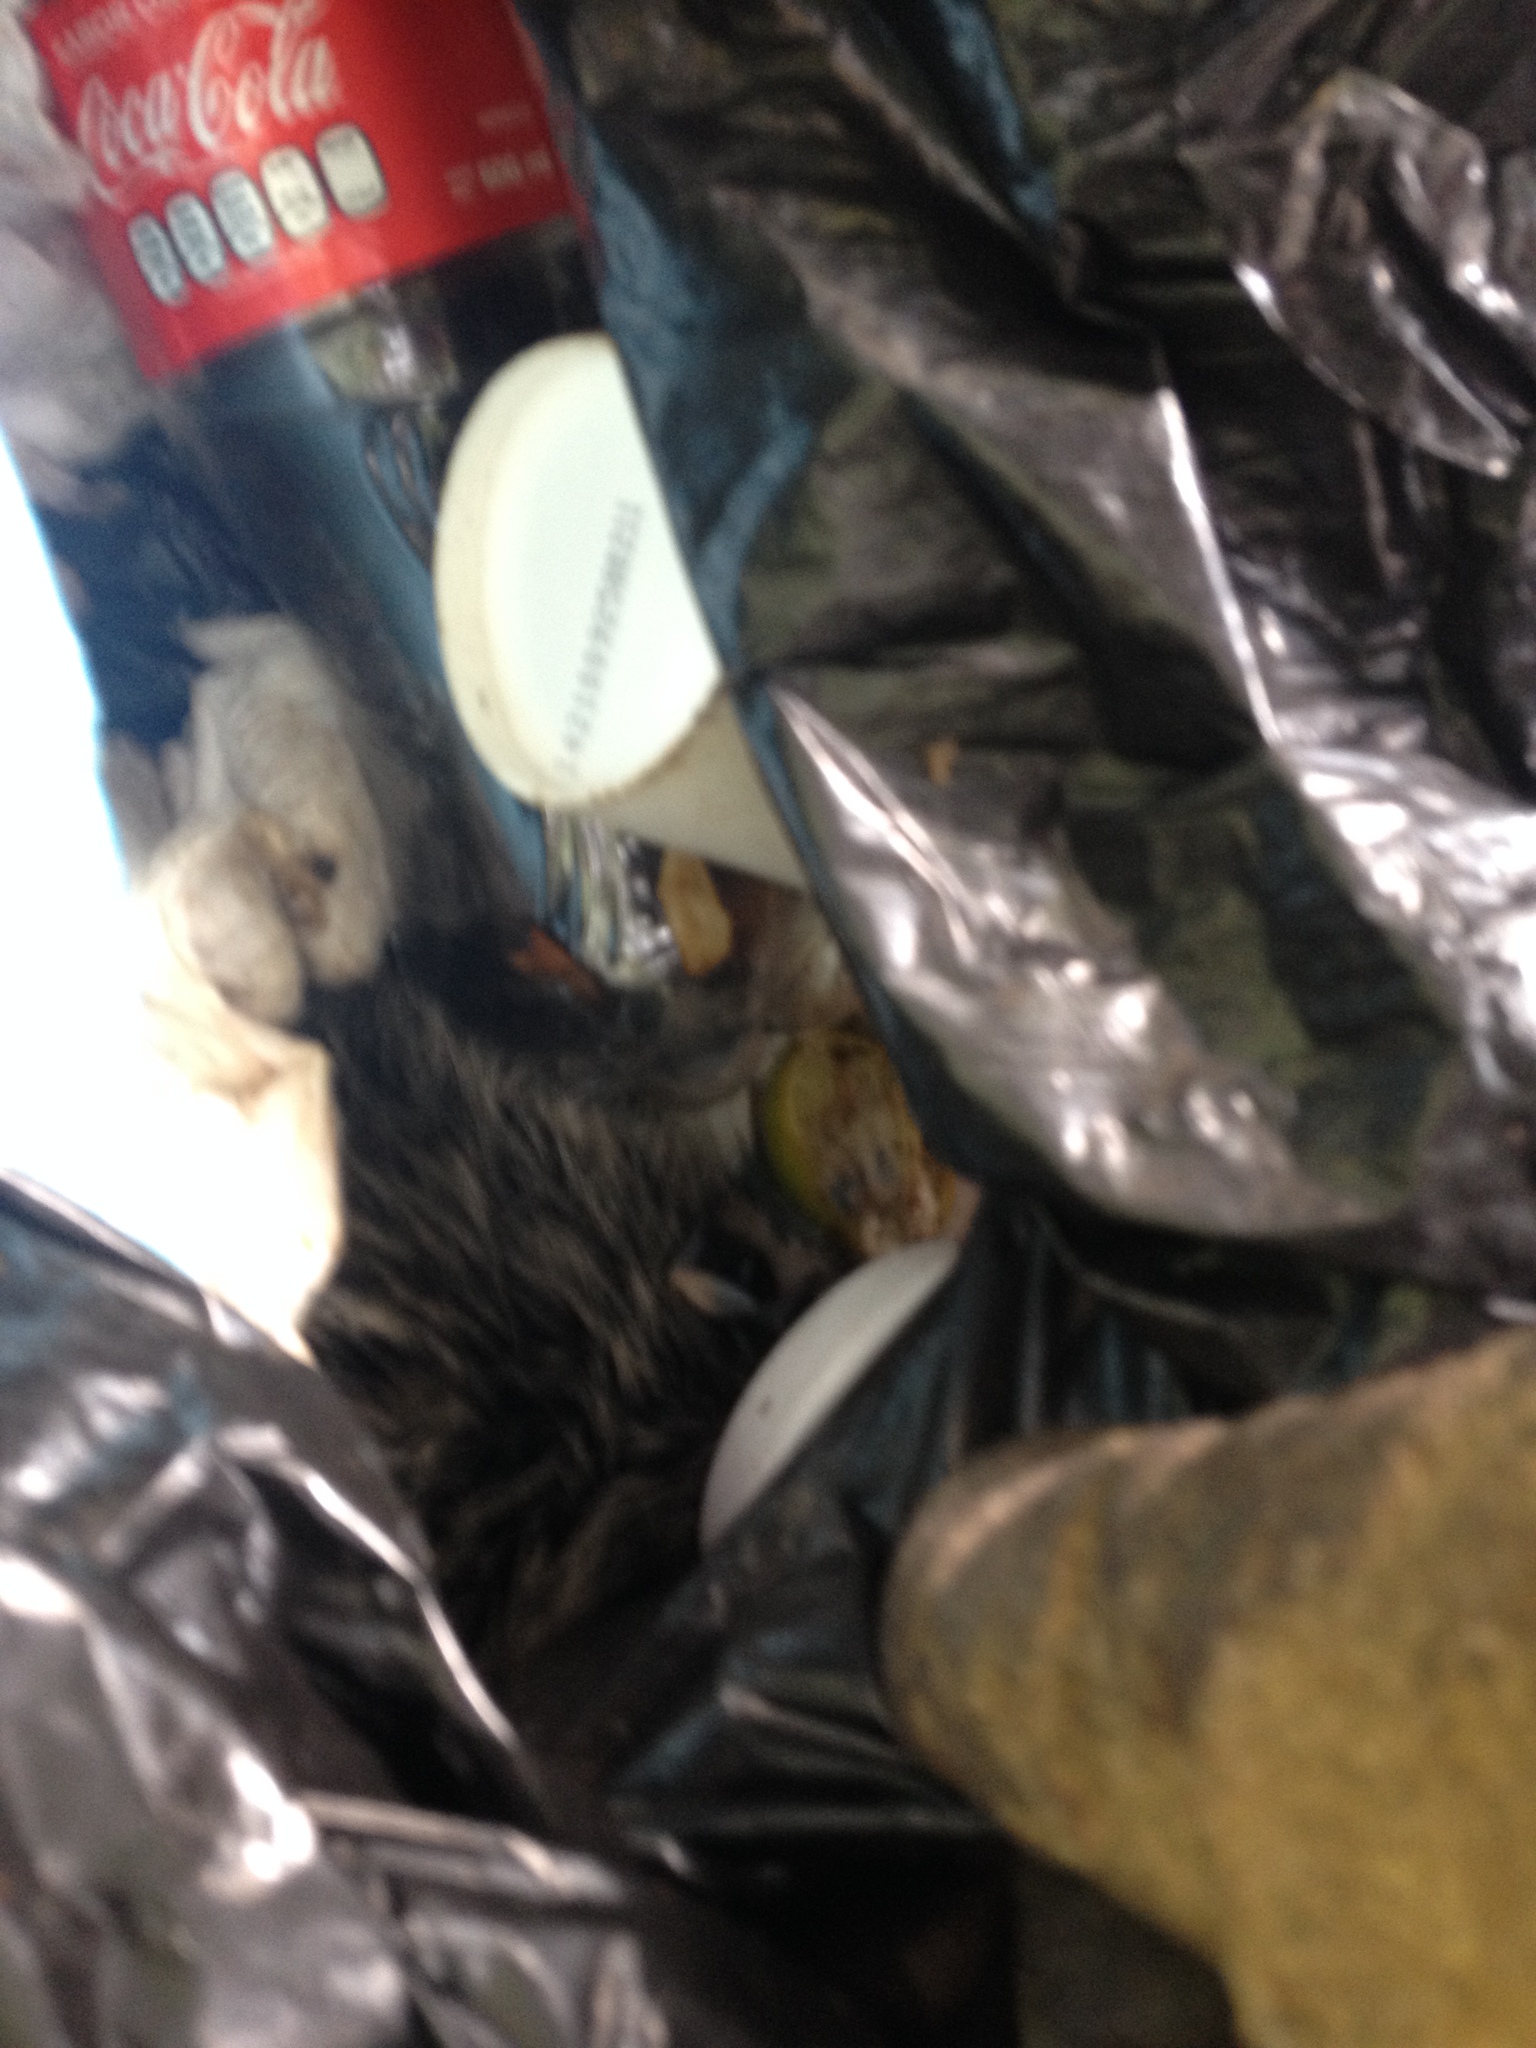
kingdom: Animalia
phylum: Chordata
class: Mammalia
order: Didelphimorphia
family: Didelphidae
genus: Didelphis
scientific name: Didelphis virginiana
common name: Virginia opossum
